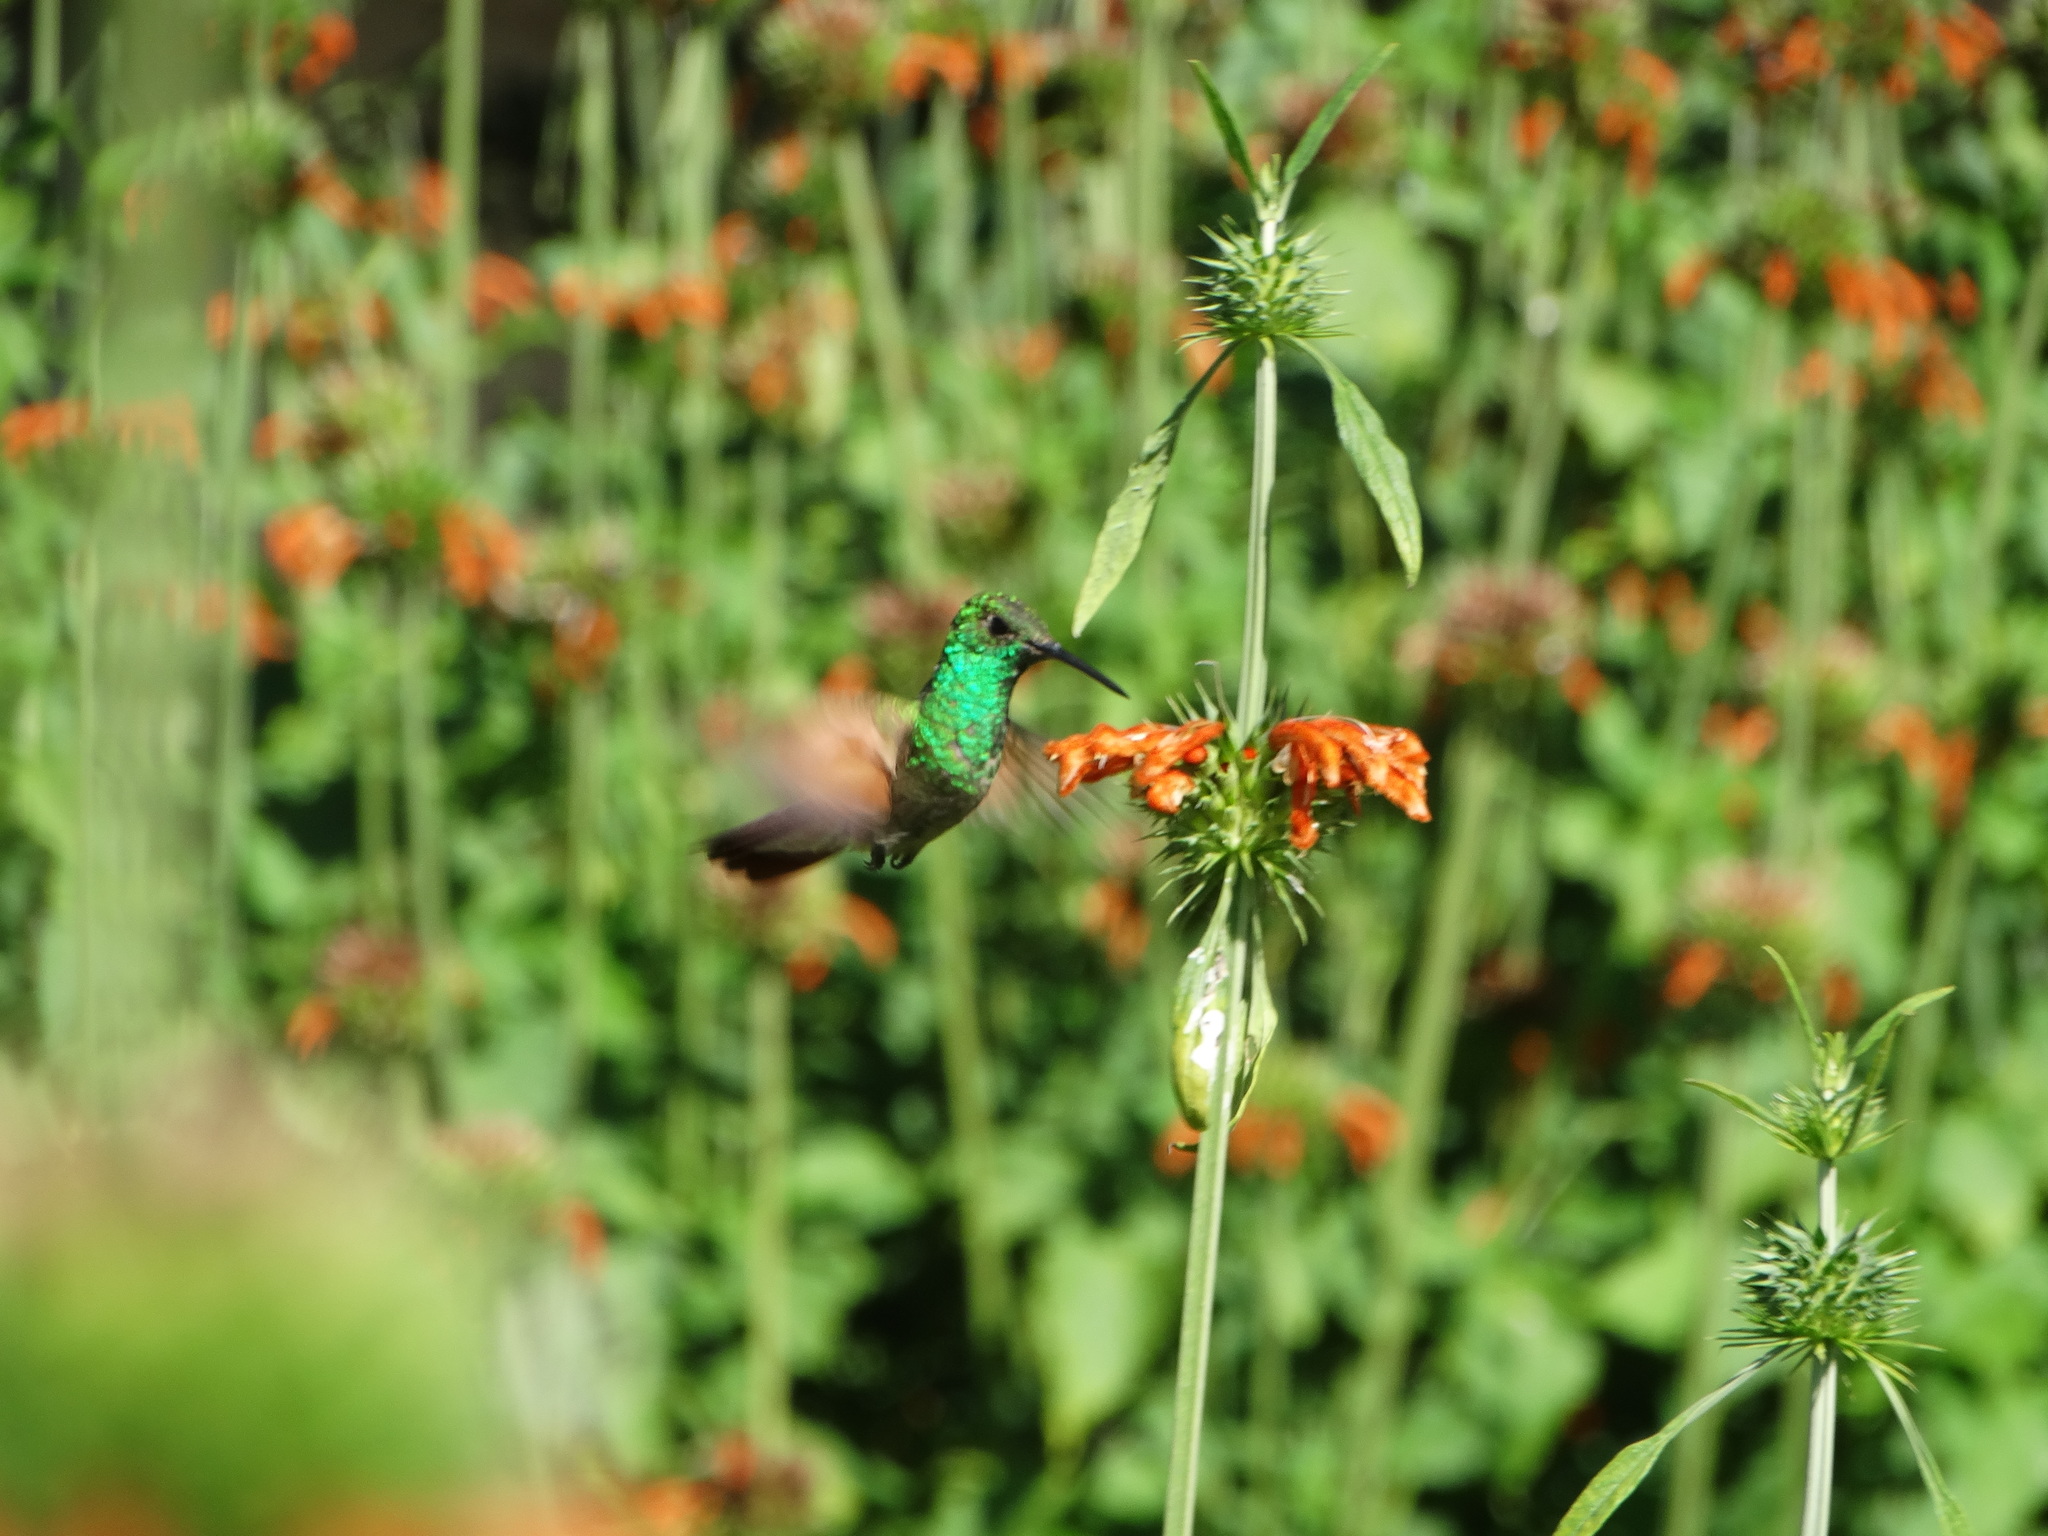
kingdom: Animalia
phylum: Chordata
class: Aves
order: Apodiformes
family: Trochilidae
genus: Saucerottia
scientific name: Saucerottia beryllina
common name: Berylline hummingbird
